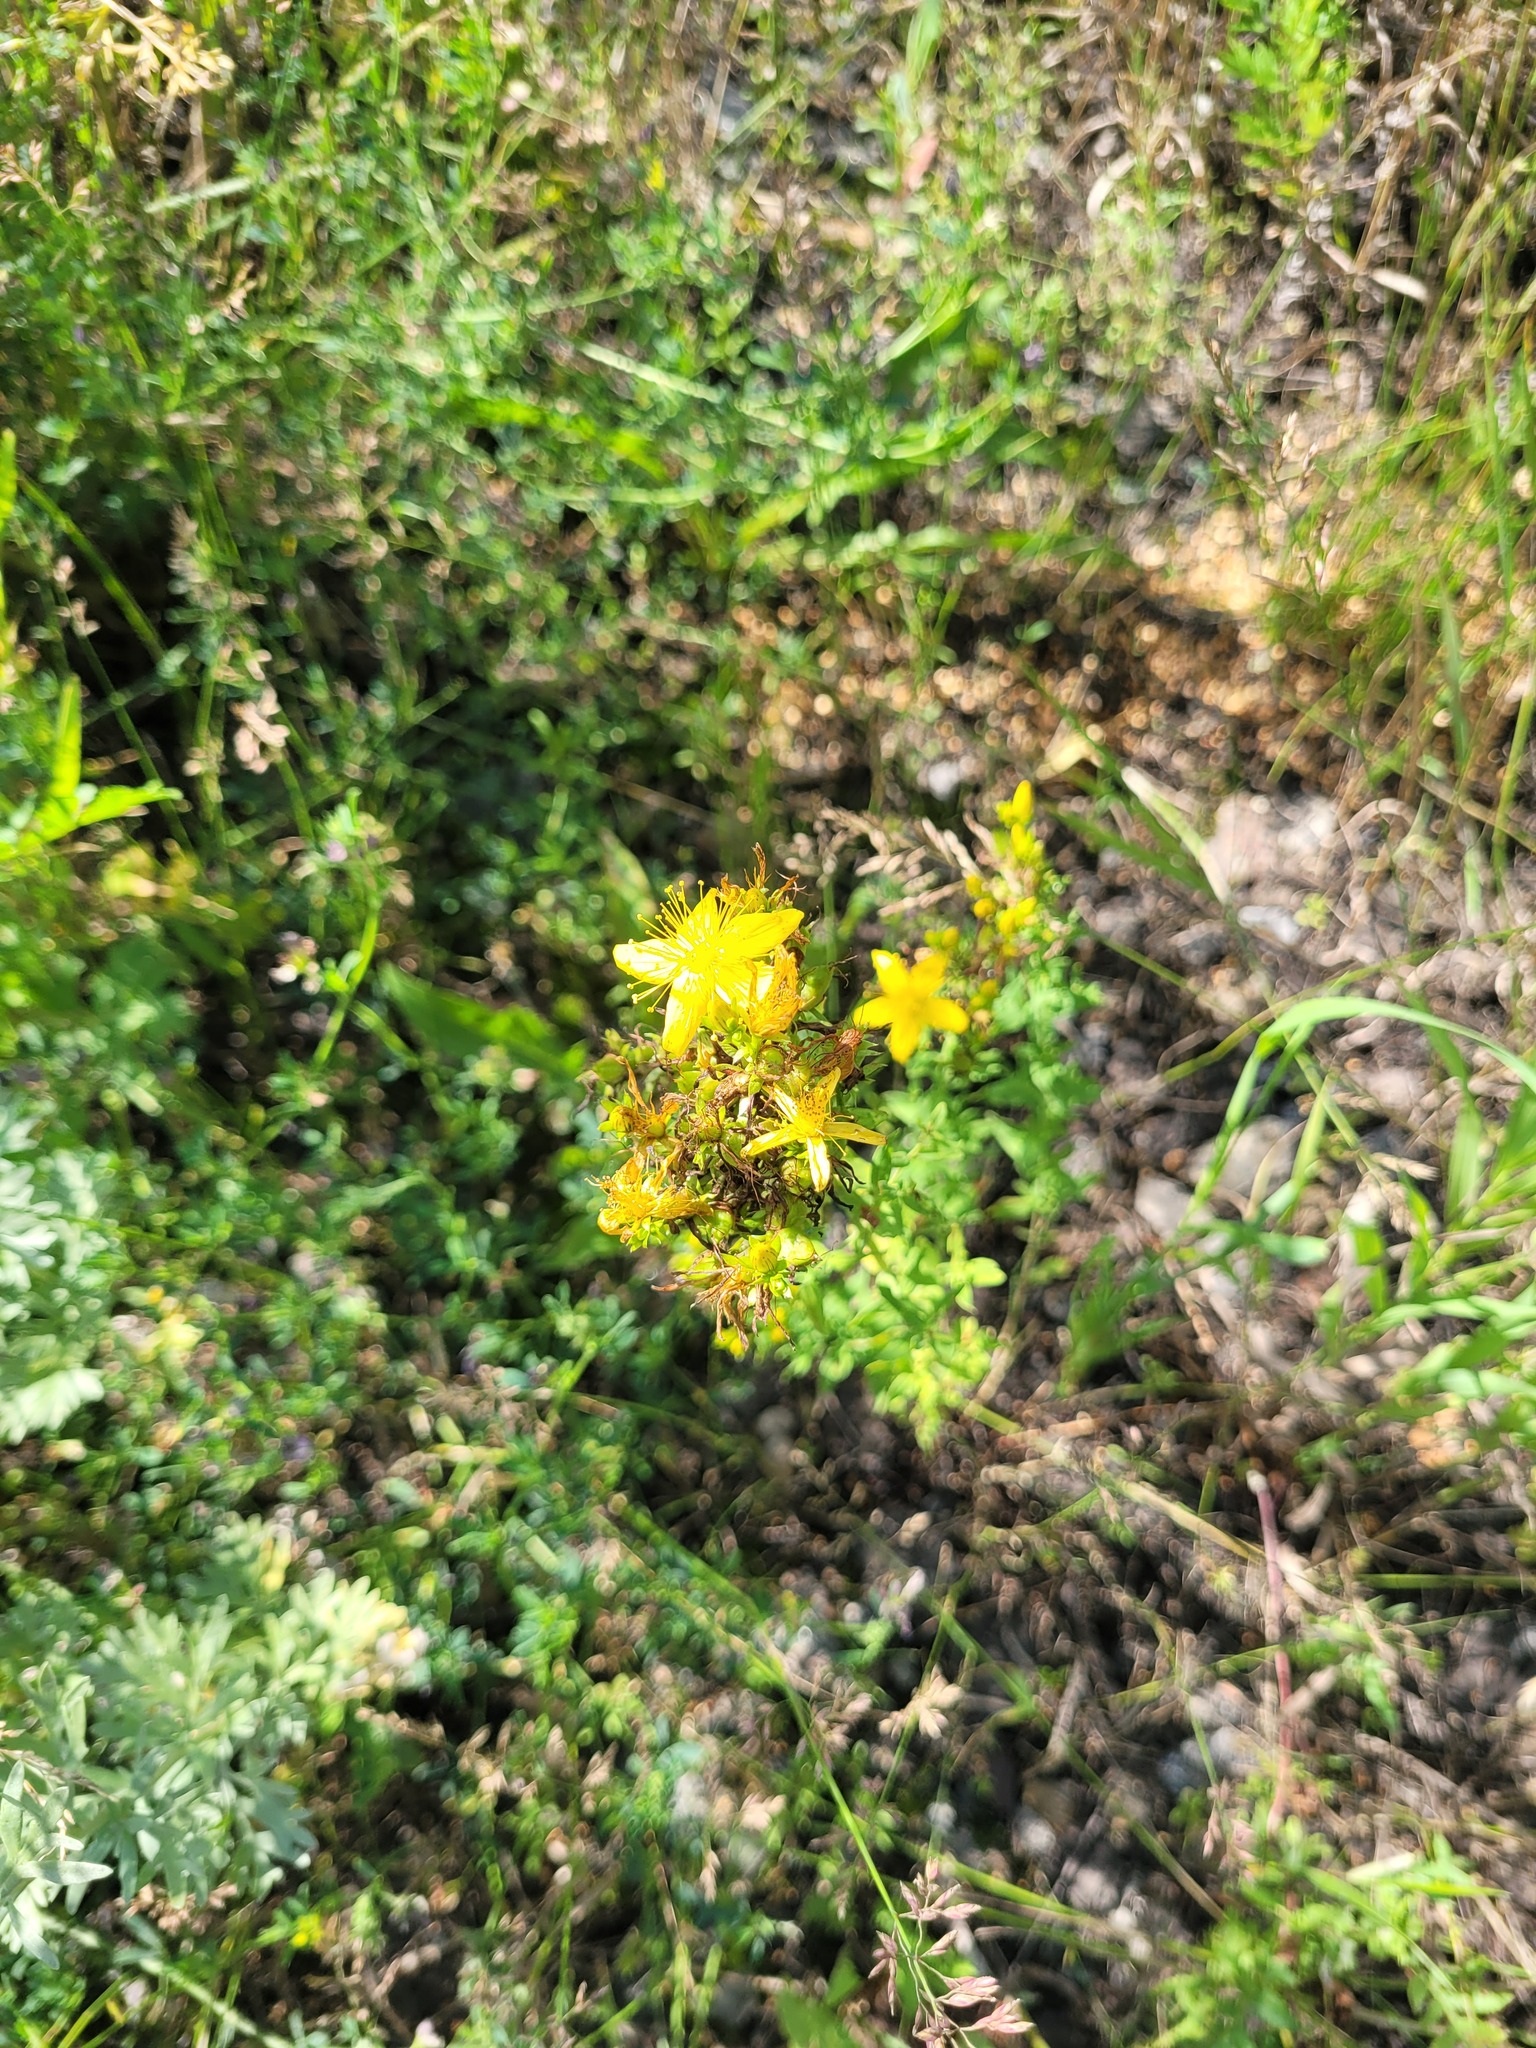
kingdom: Plantae
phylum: Tracheophyta
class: Magnoliopsida
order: Malpighiales
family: Hypericaceae
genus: Hypericum
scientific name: Hypericum perforatum
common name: Common st. johnswort
